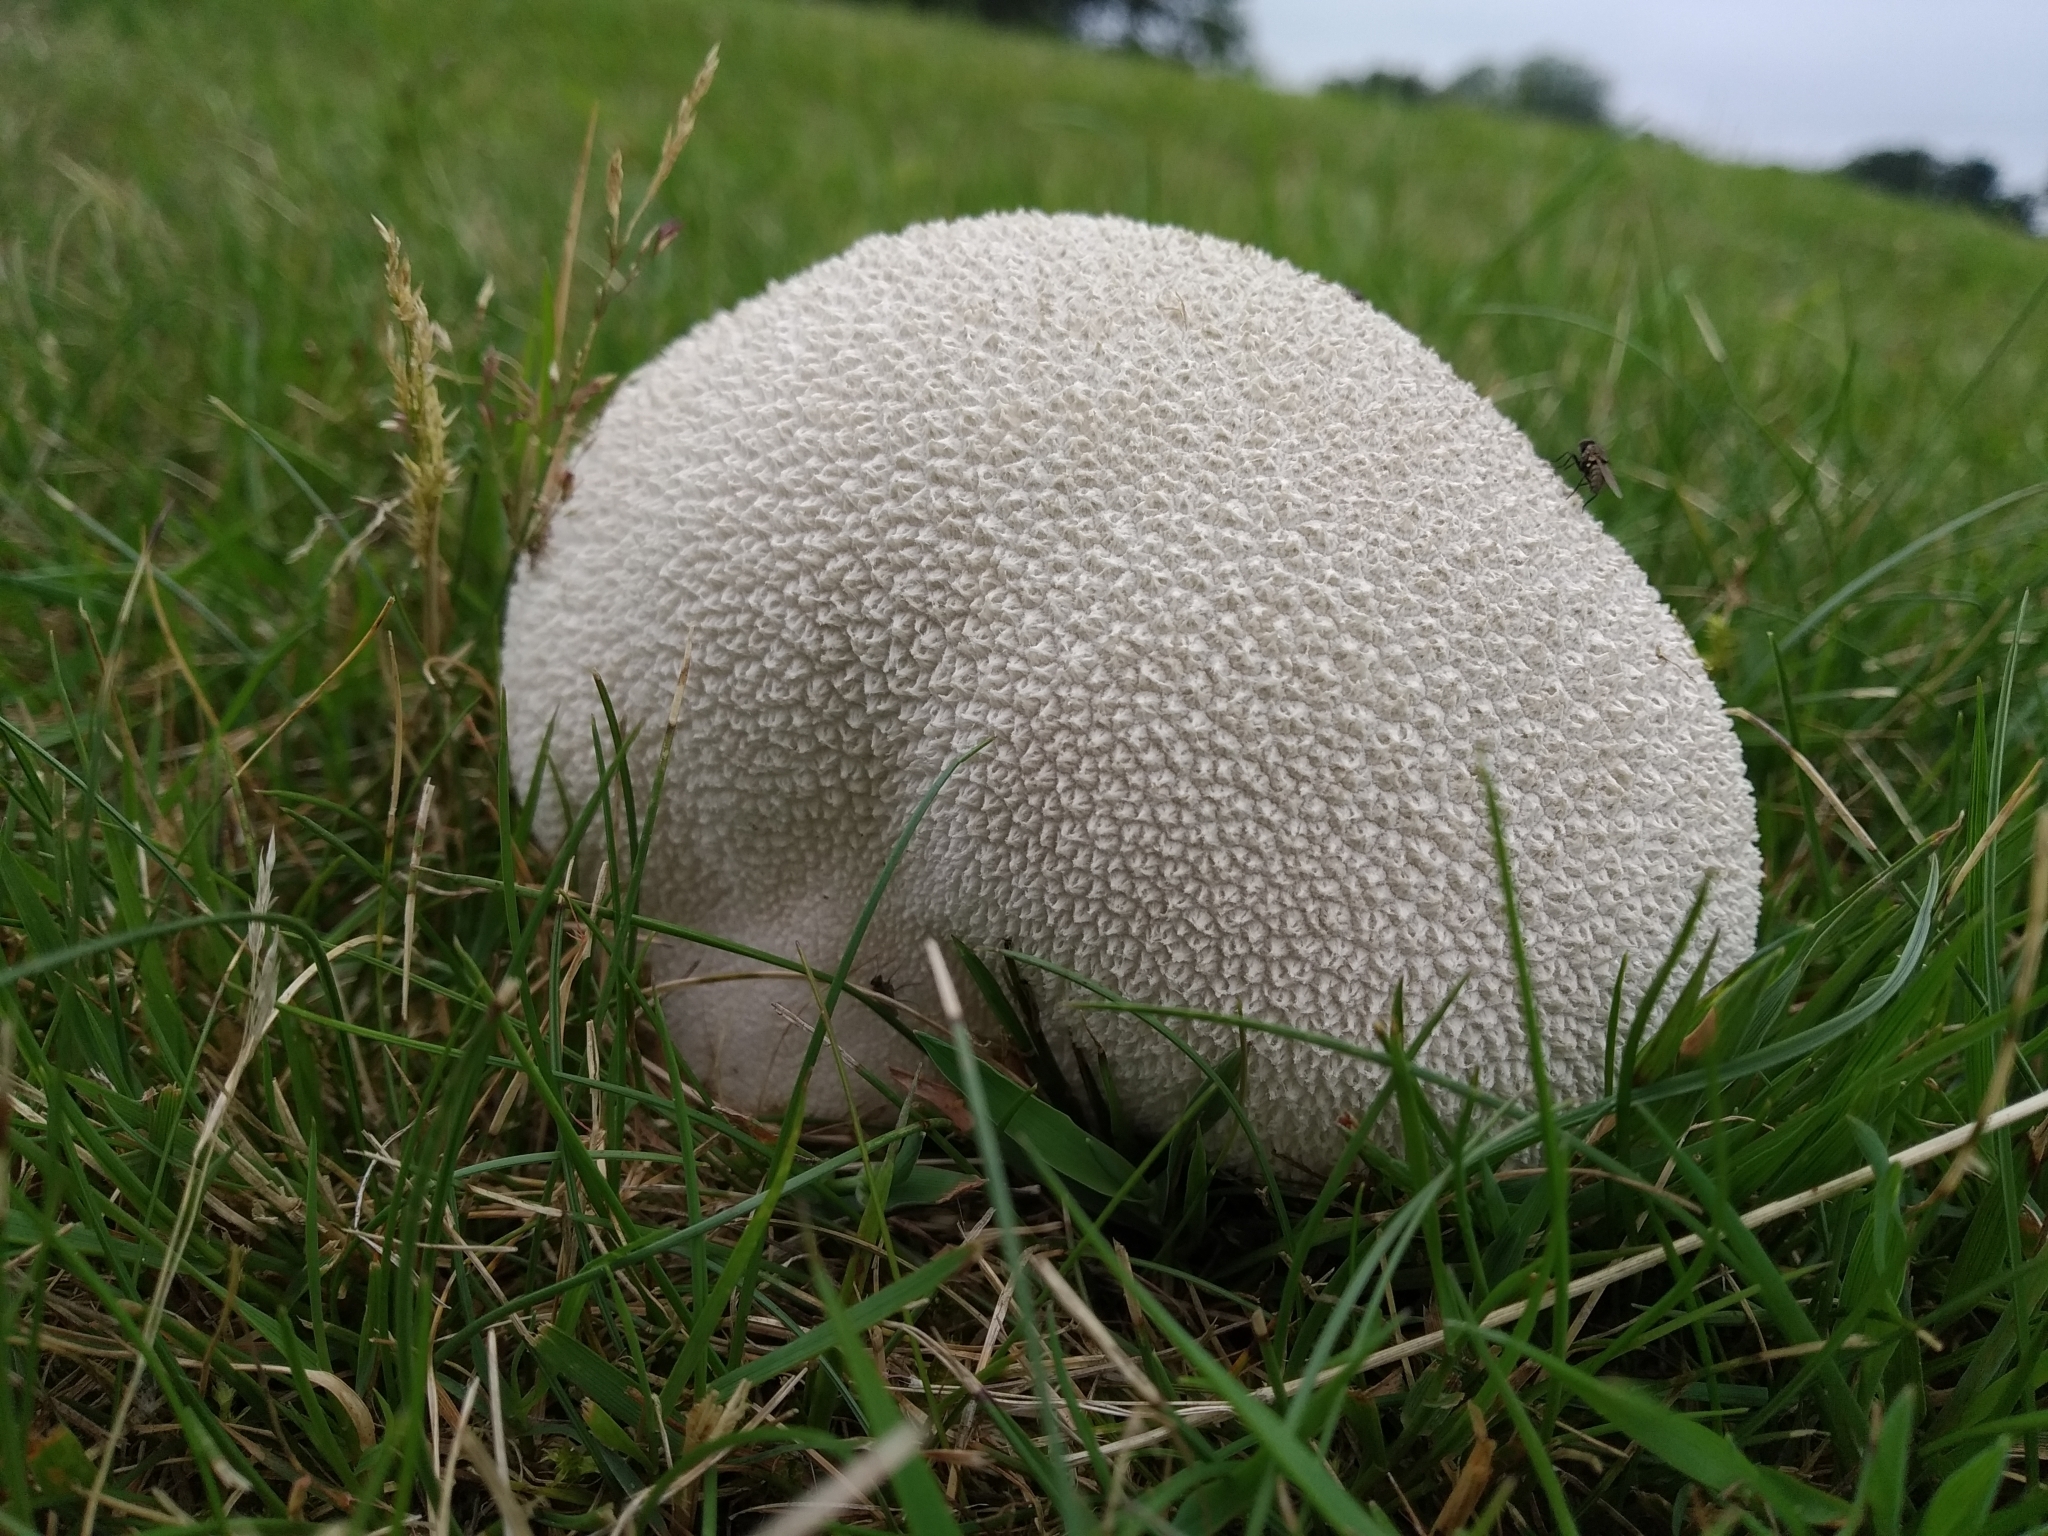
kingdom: Fungi
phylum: Basidiomycota
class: Agaricomycetes
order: Agaricales
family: Lycoperdaceae
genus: Bovistella
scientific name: Bovistella utriformis
